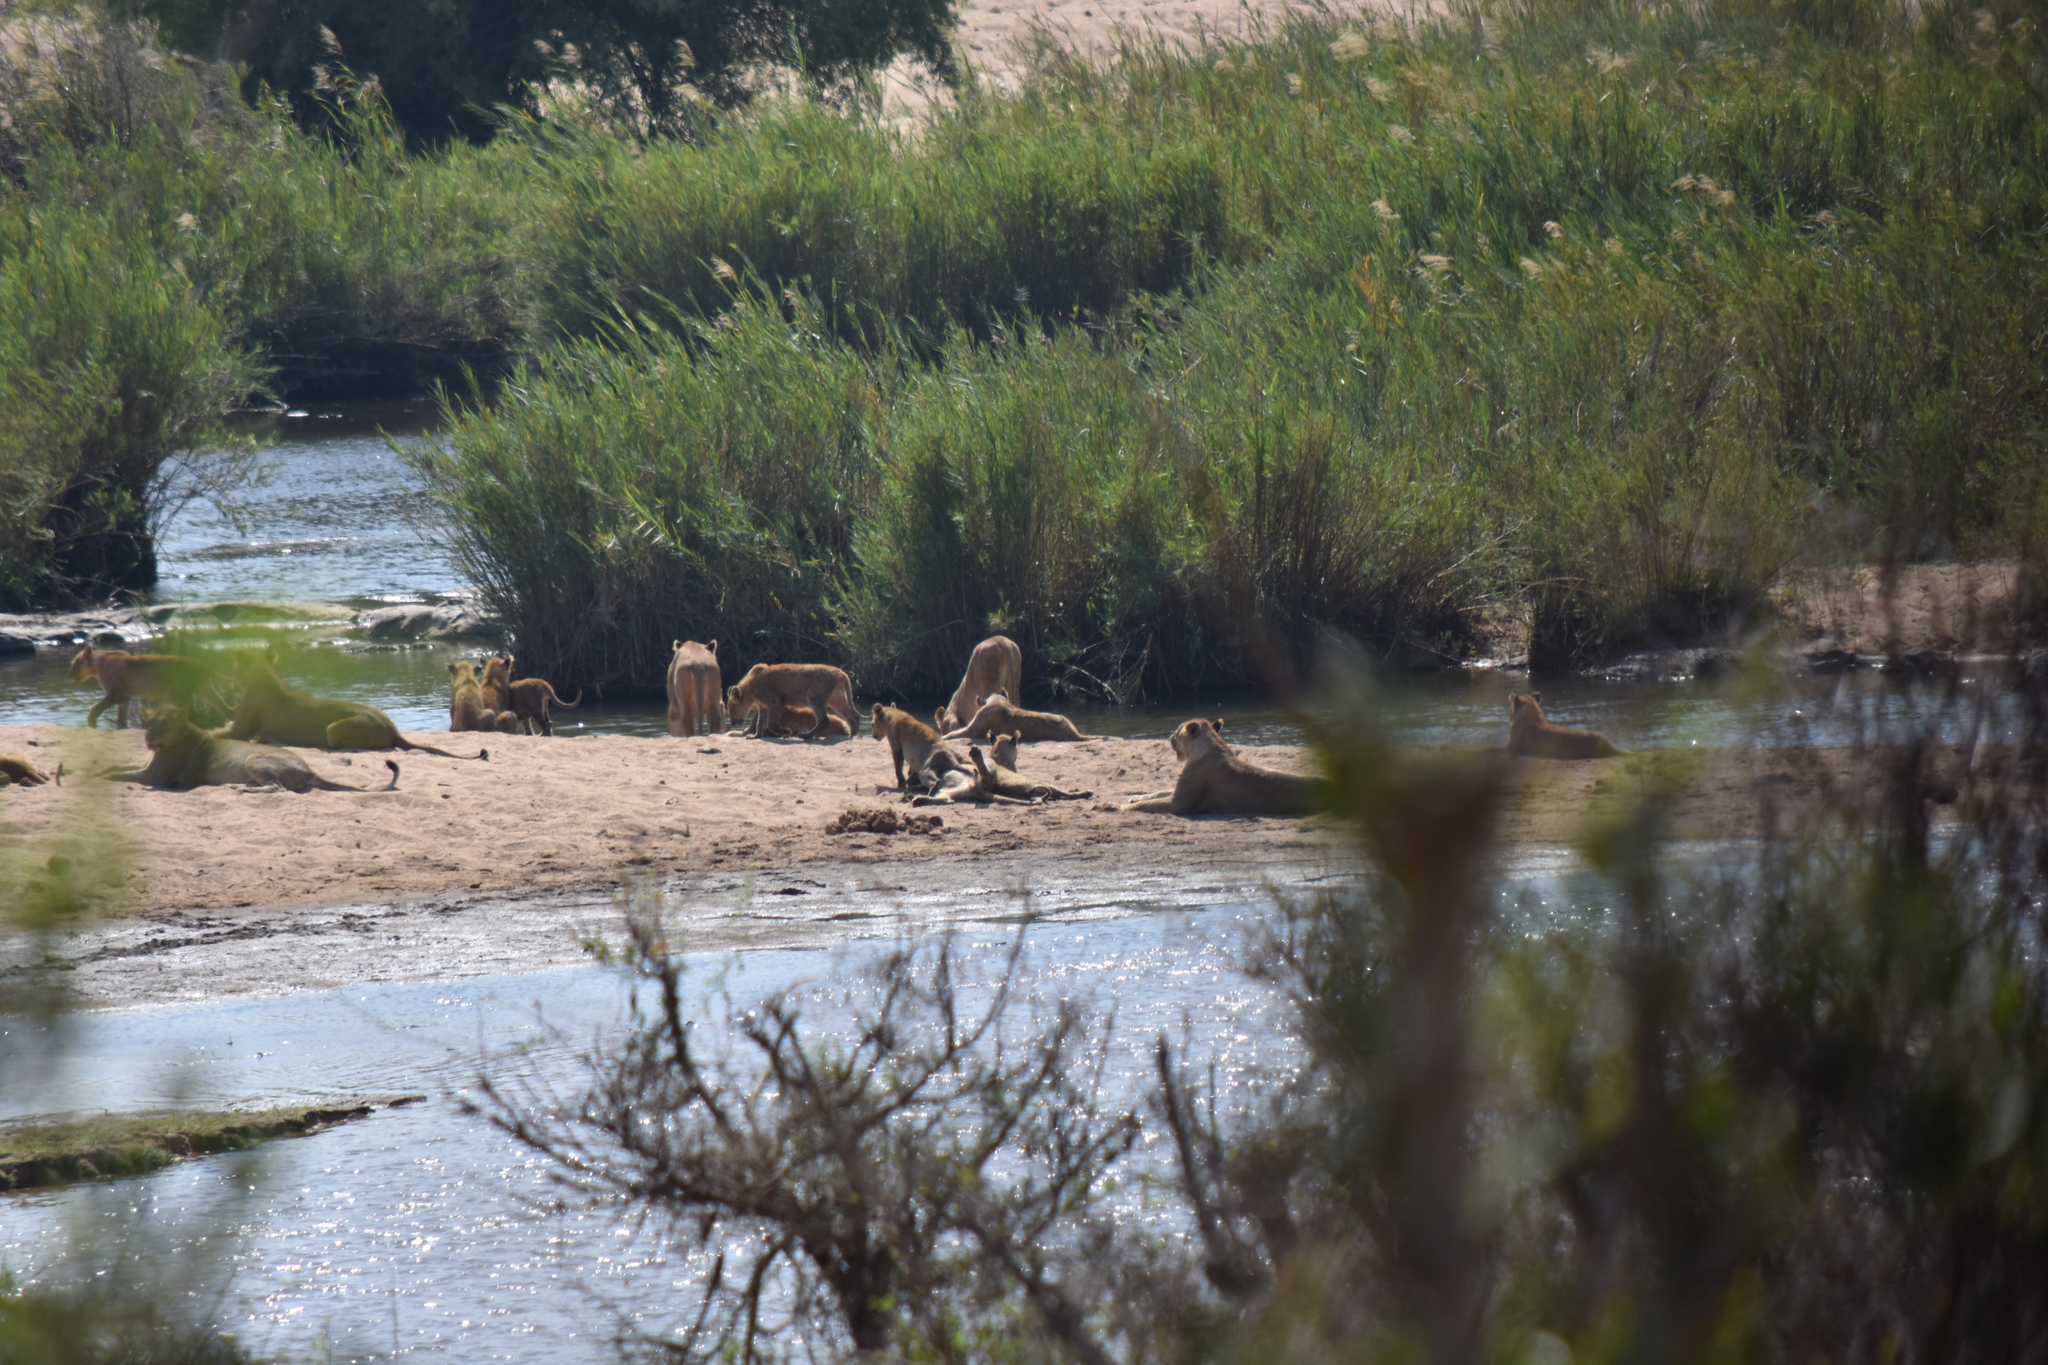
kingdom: Animalia
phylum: Chordata
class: Mammalia
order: Carnivora
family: Felidae
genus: Panthera
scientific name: Panthera leo
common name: Lion
